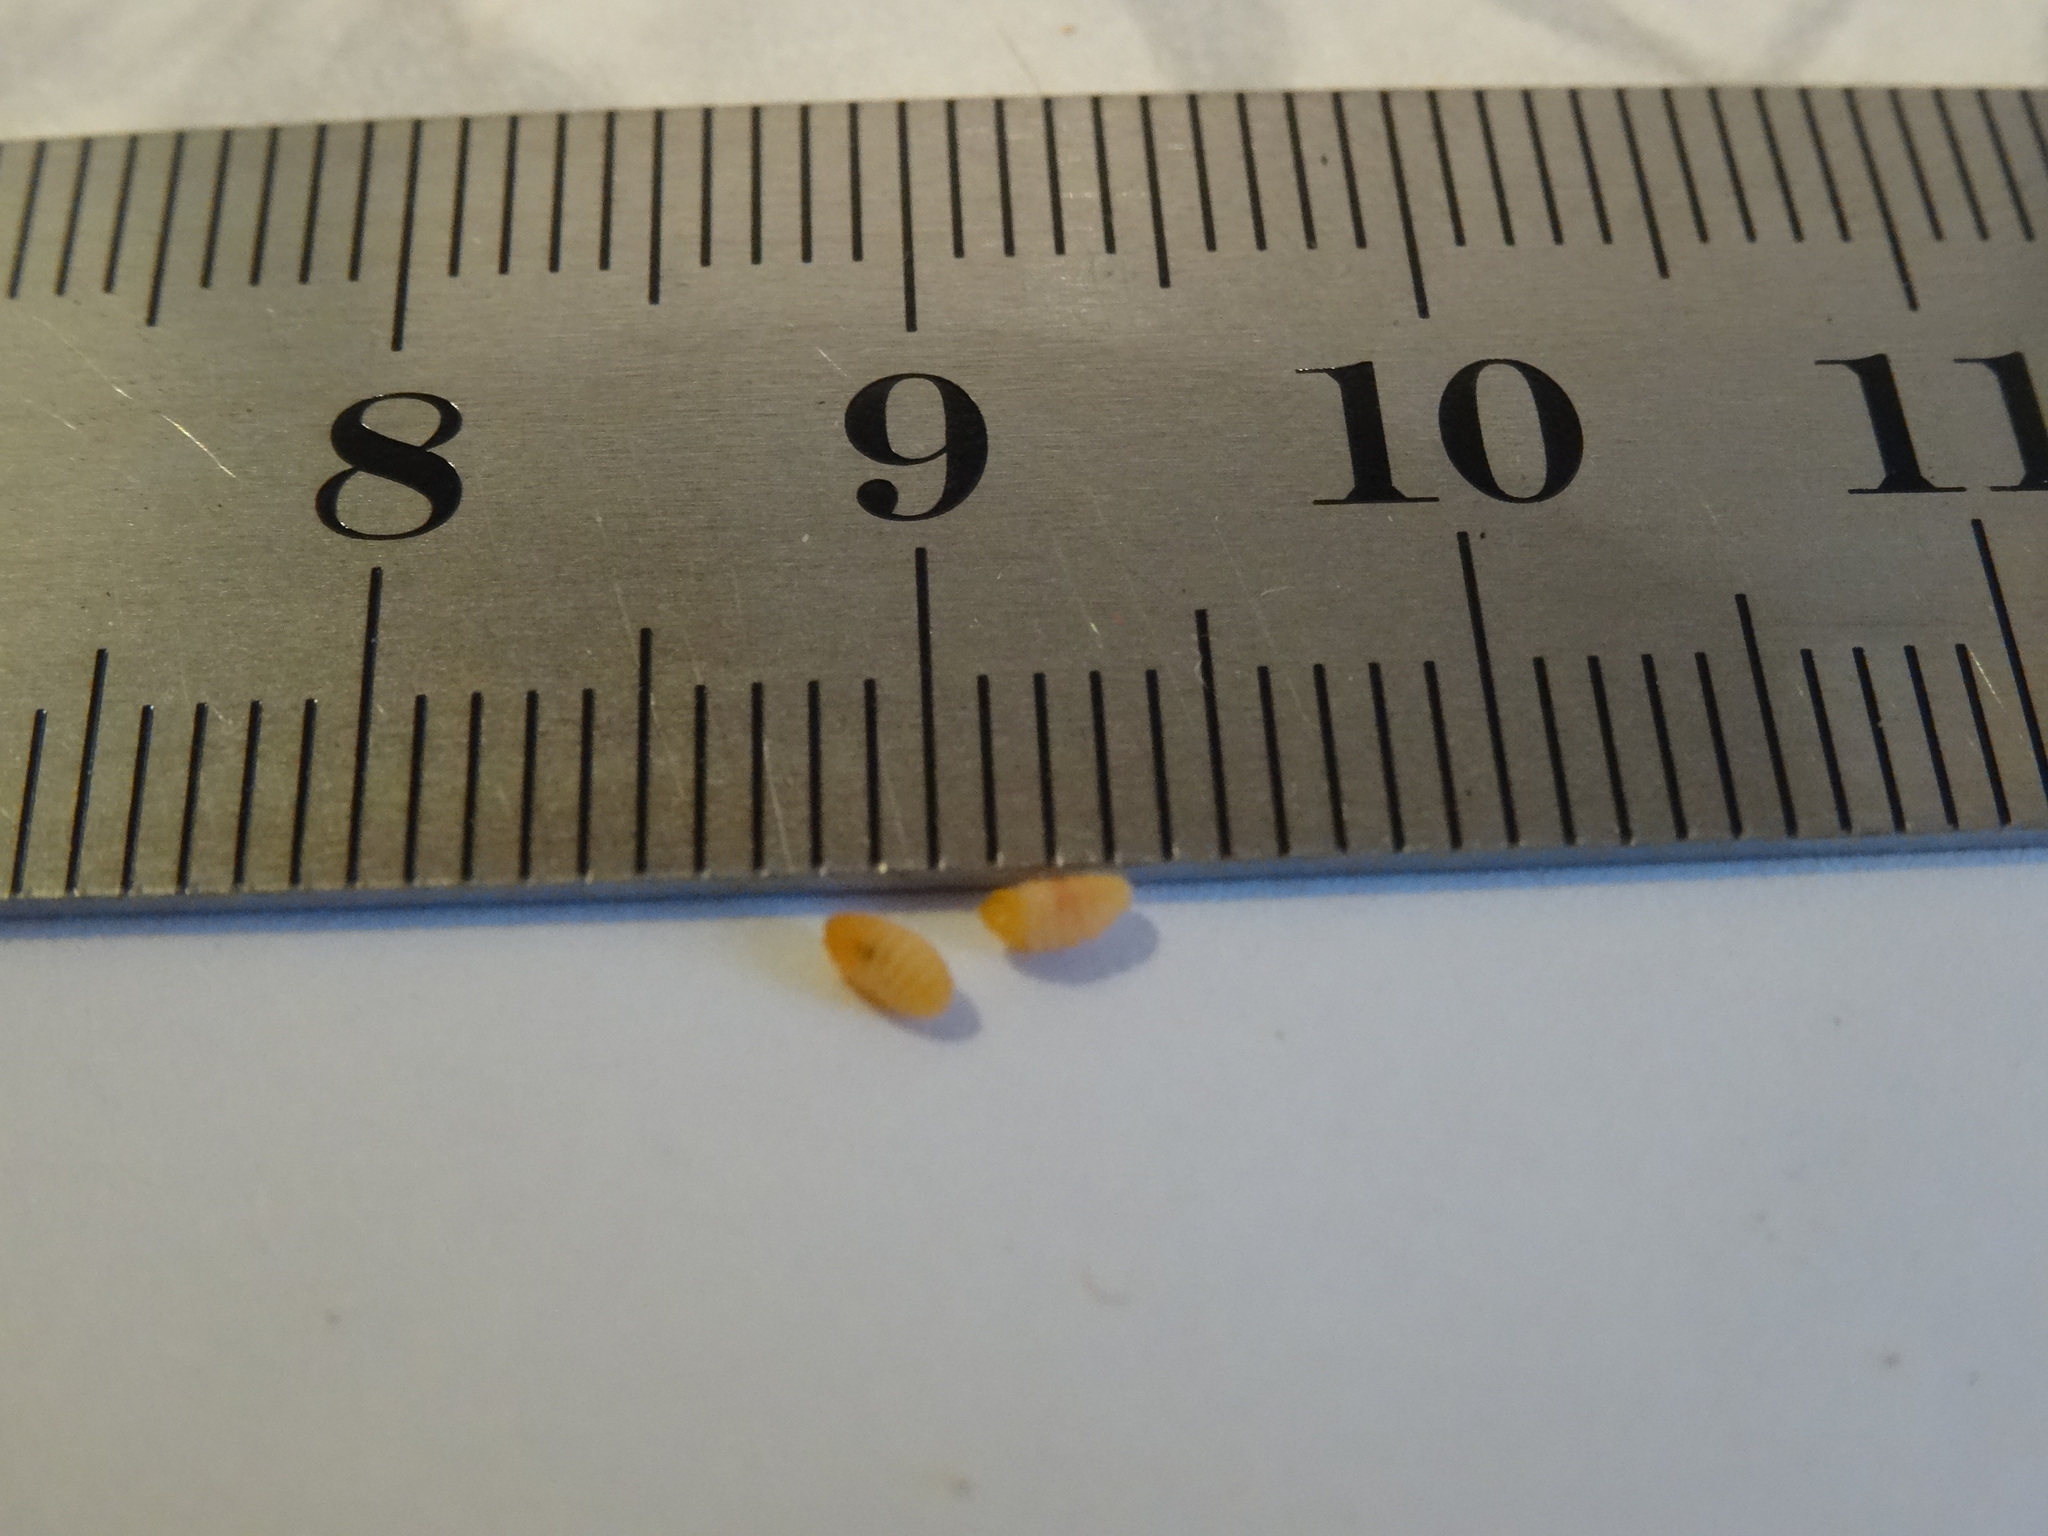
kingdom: Animalia
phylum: Arthropoda
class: Insecta
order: Diptera
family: Cecidomyiidae
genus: Rabdophaga
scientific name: Rabdophaga rosaria
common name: Willow rose gall midge
